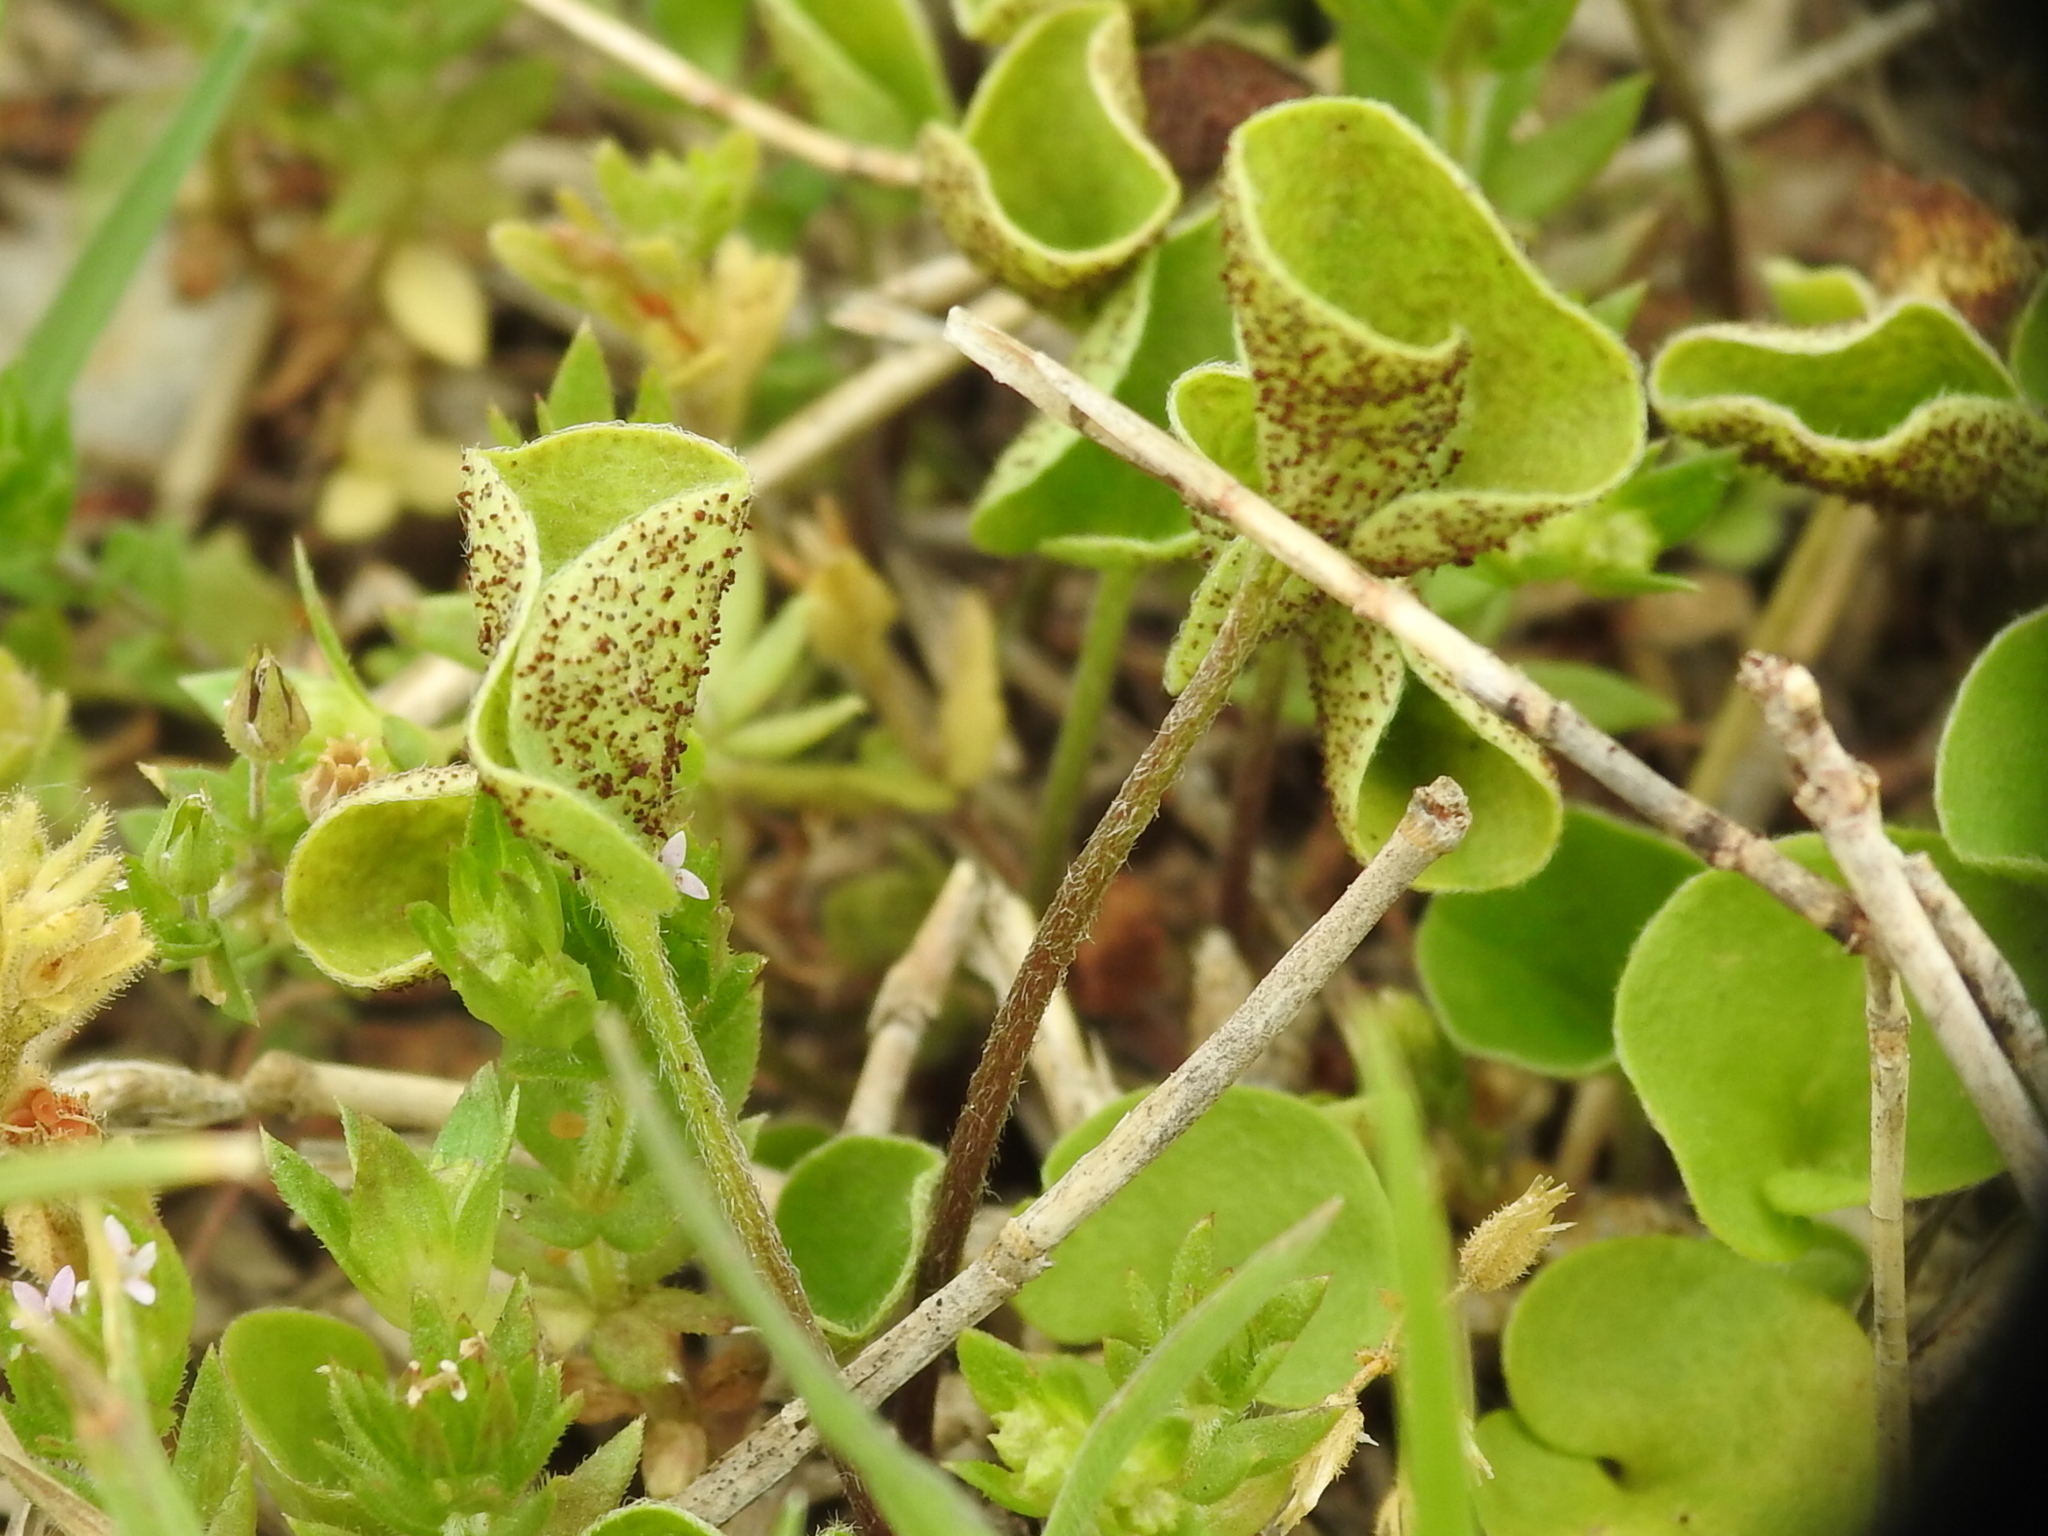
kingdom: Fungi
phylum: Basidiomycota
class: Pucciniomycetes
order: Pucciniales
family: Pucciniaceae
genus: Puccinia
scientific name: Puccinia dichondrae
